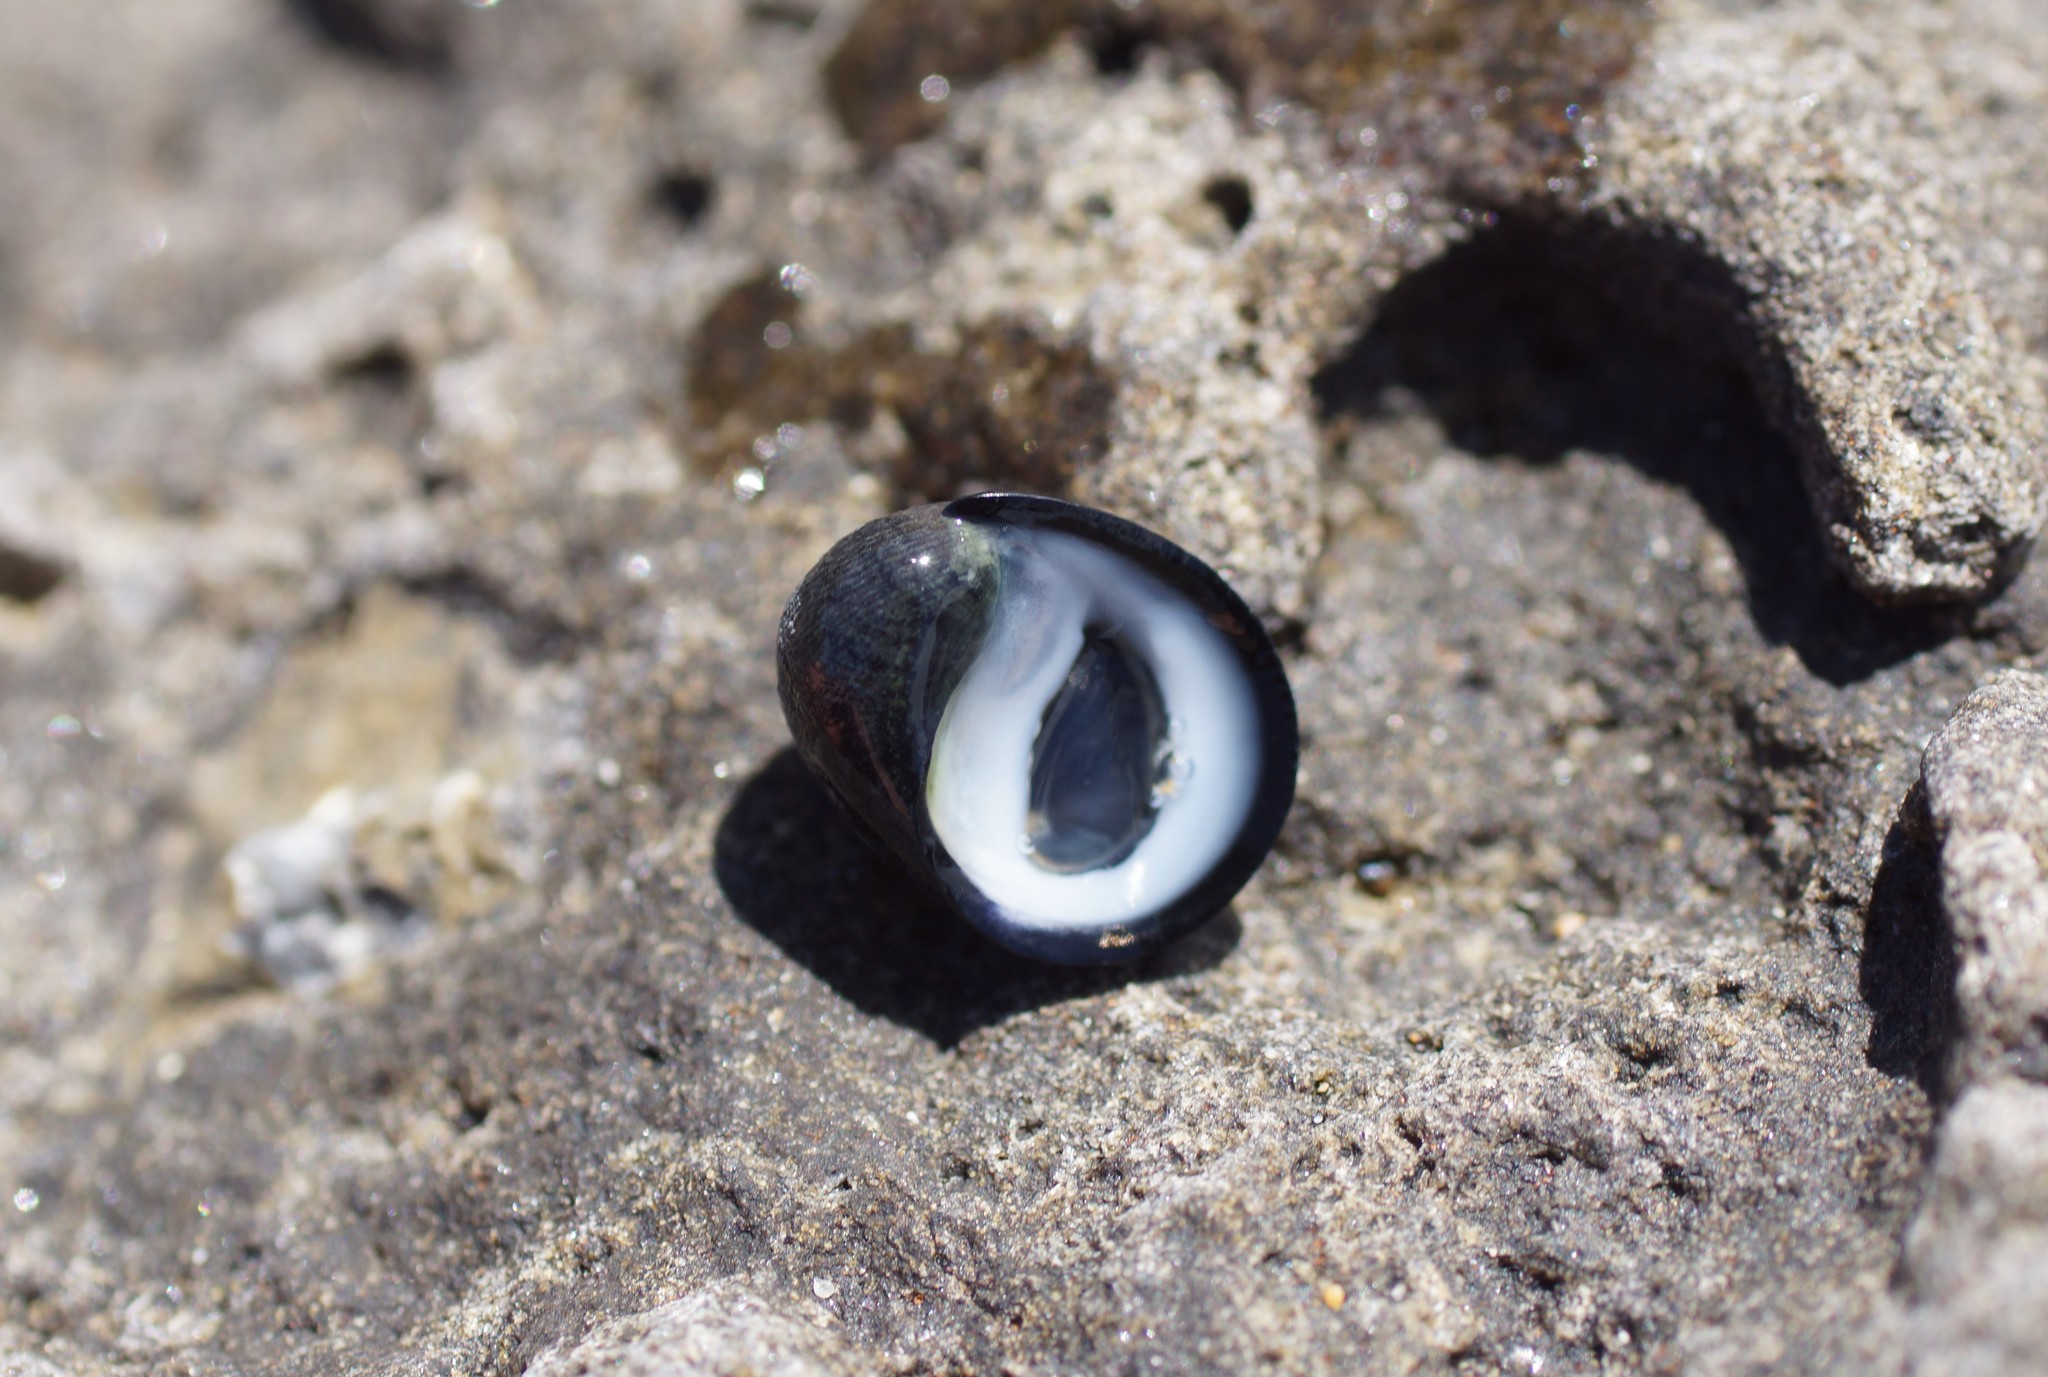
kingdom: Animalia
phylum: Mollusca
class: Gastropoda
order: Cycloneritida
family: Neritidae
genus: Nerita
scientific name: Nerita atramentosa
